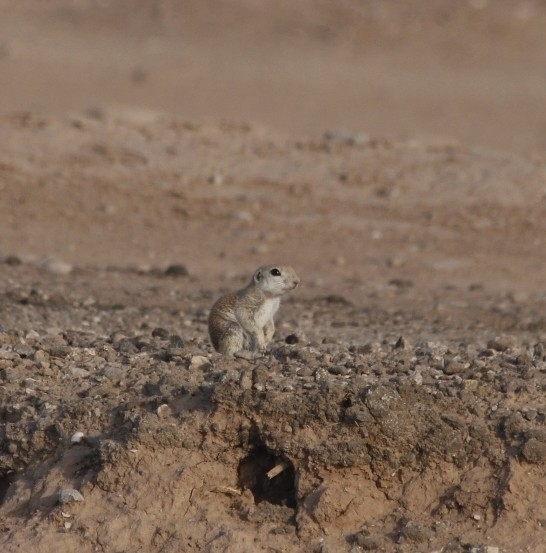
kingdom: Animalia
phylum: Chordata
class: Mammalia
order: Rodentia
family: Sciuridae
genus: Xerospermophilus
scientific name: Xerospermophilus tereticaudus
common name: Round-tailed ground squirrel
